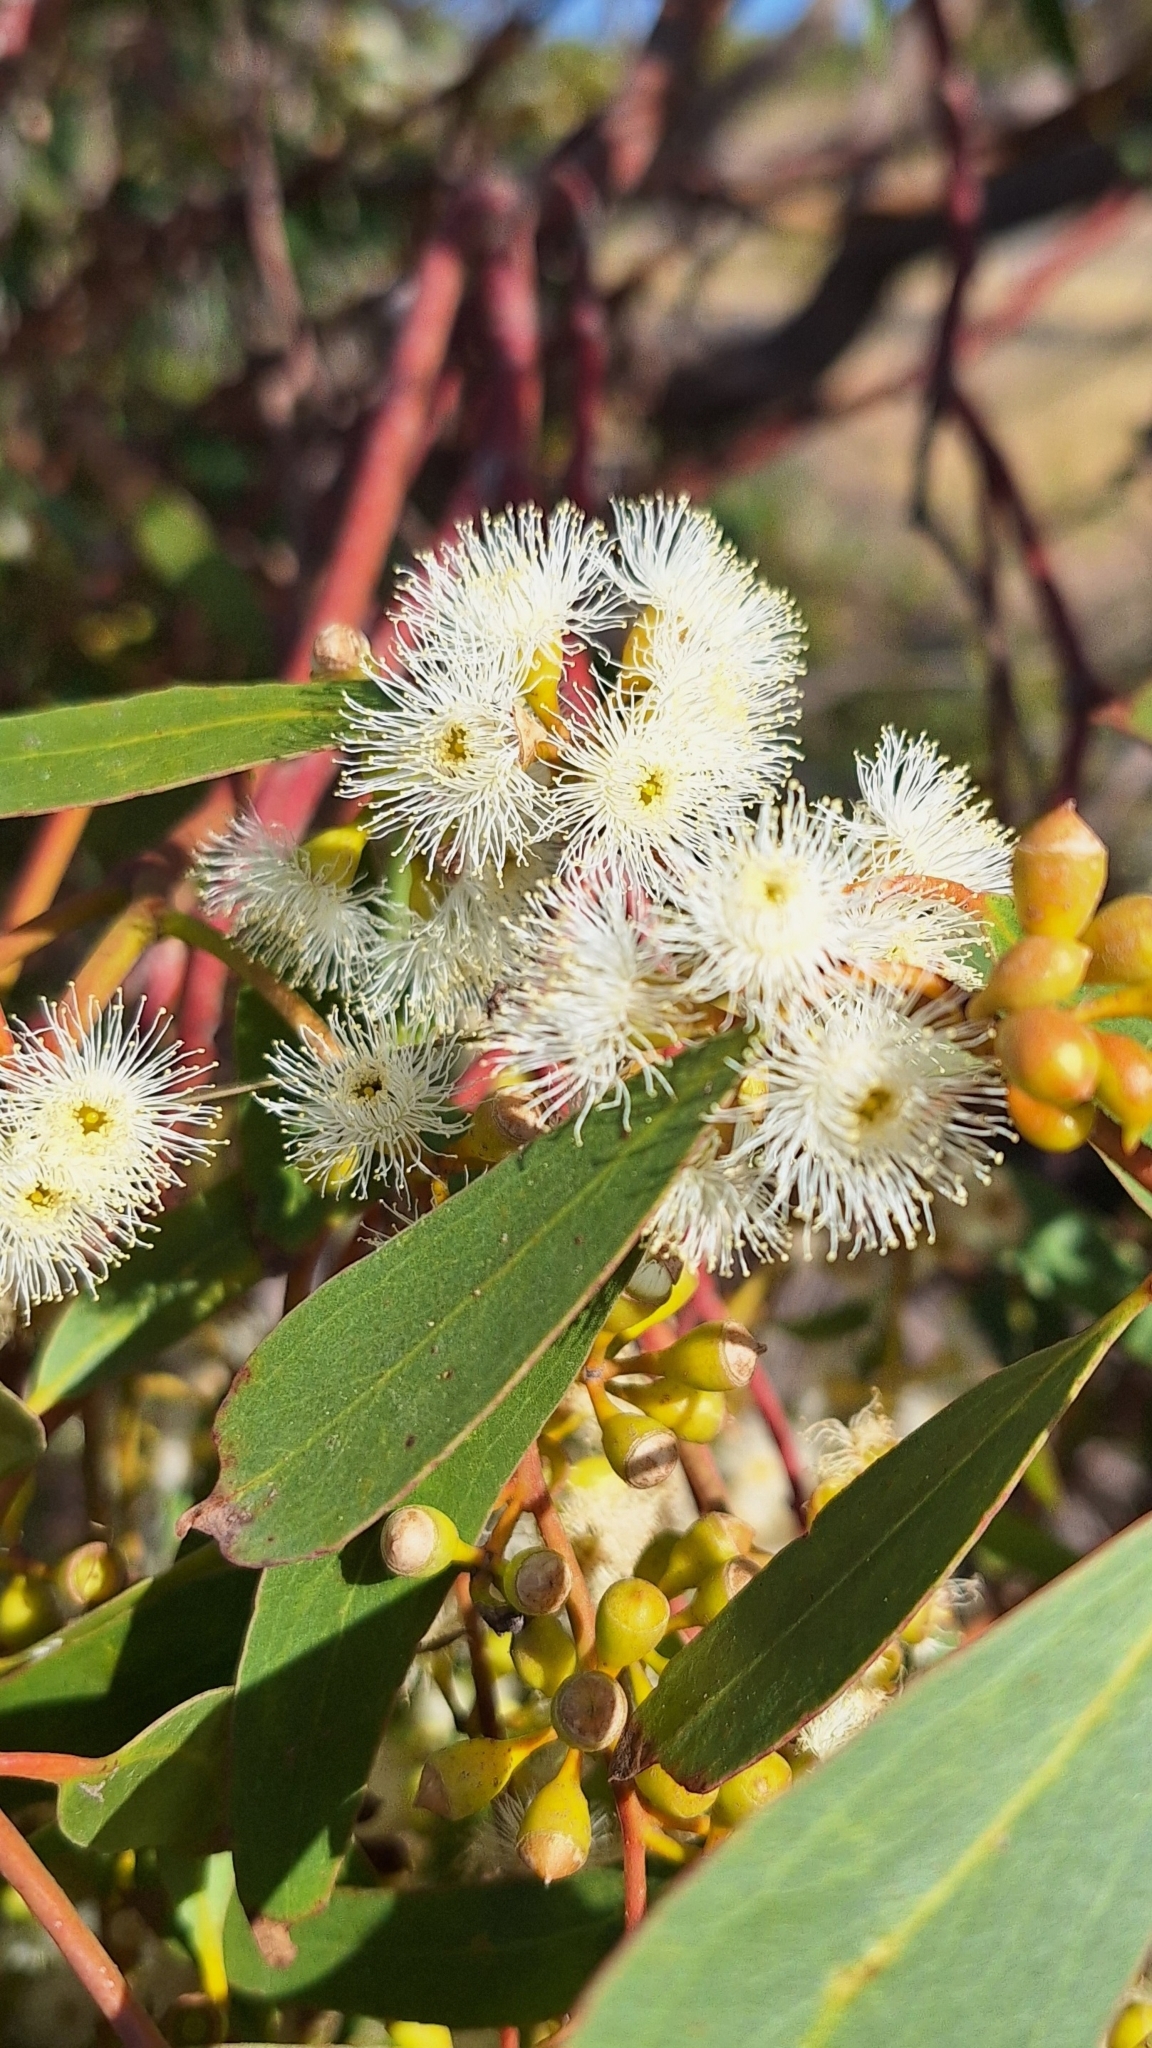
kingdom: Plantae
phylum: Tracheophyta
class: Magnoliopsida
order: Myrtales
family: Myrtaceae
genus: Eucalyptus
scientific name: Eucalyptus porosa
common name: Quorn mallee
